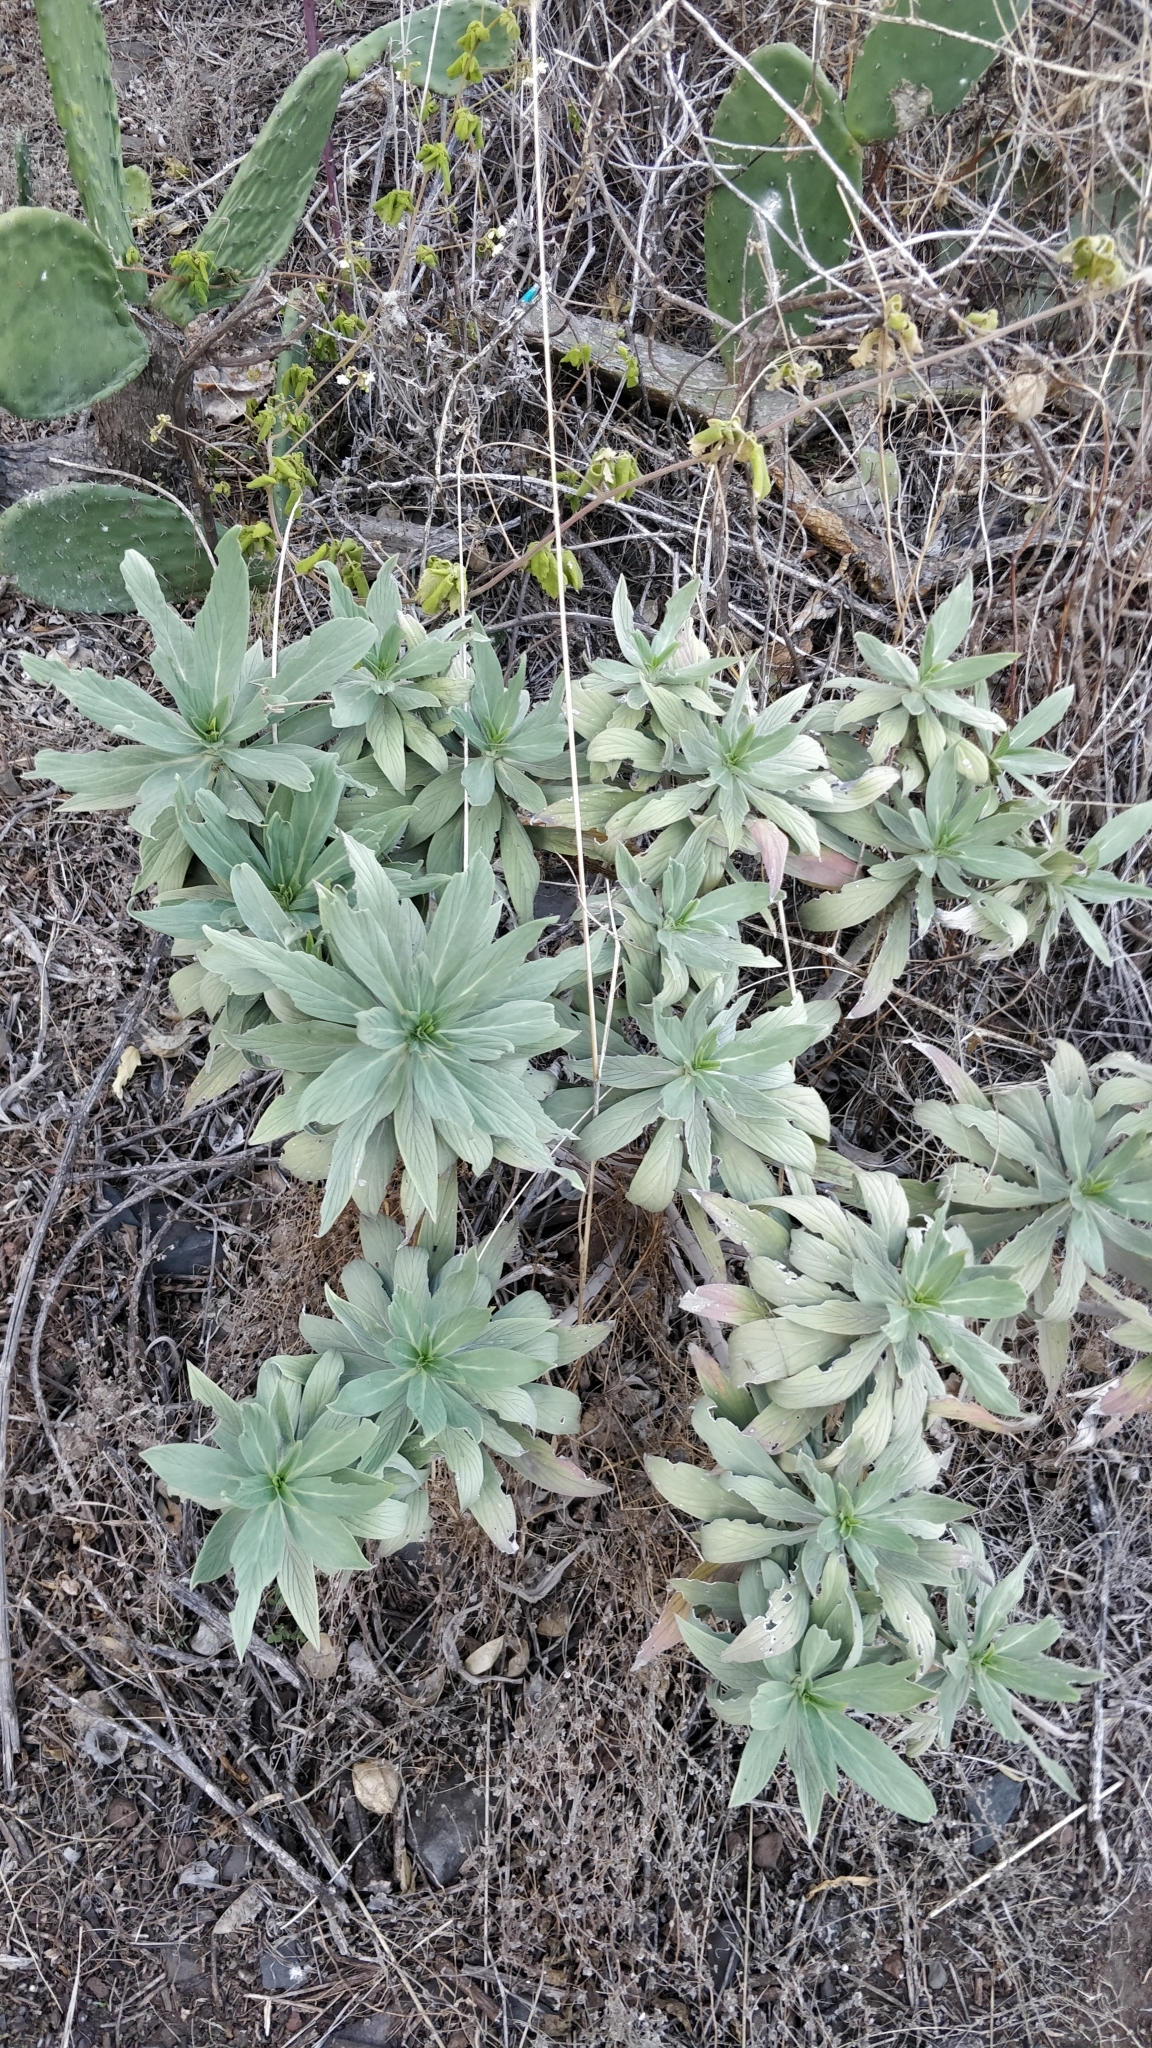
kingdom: Plantae
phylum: Tracheophyta
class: Magnoliopsida
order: Boraginales
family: Boraginaceae
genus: Echium
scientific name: Echium nervosum
